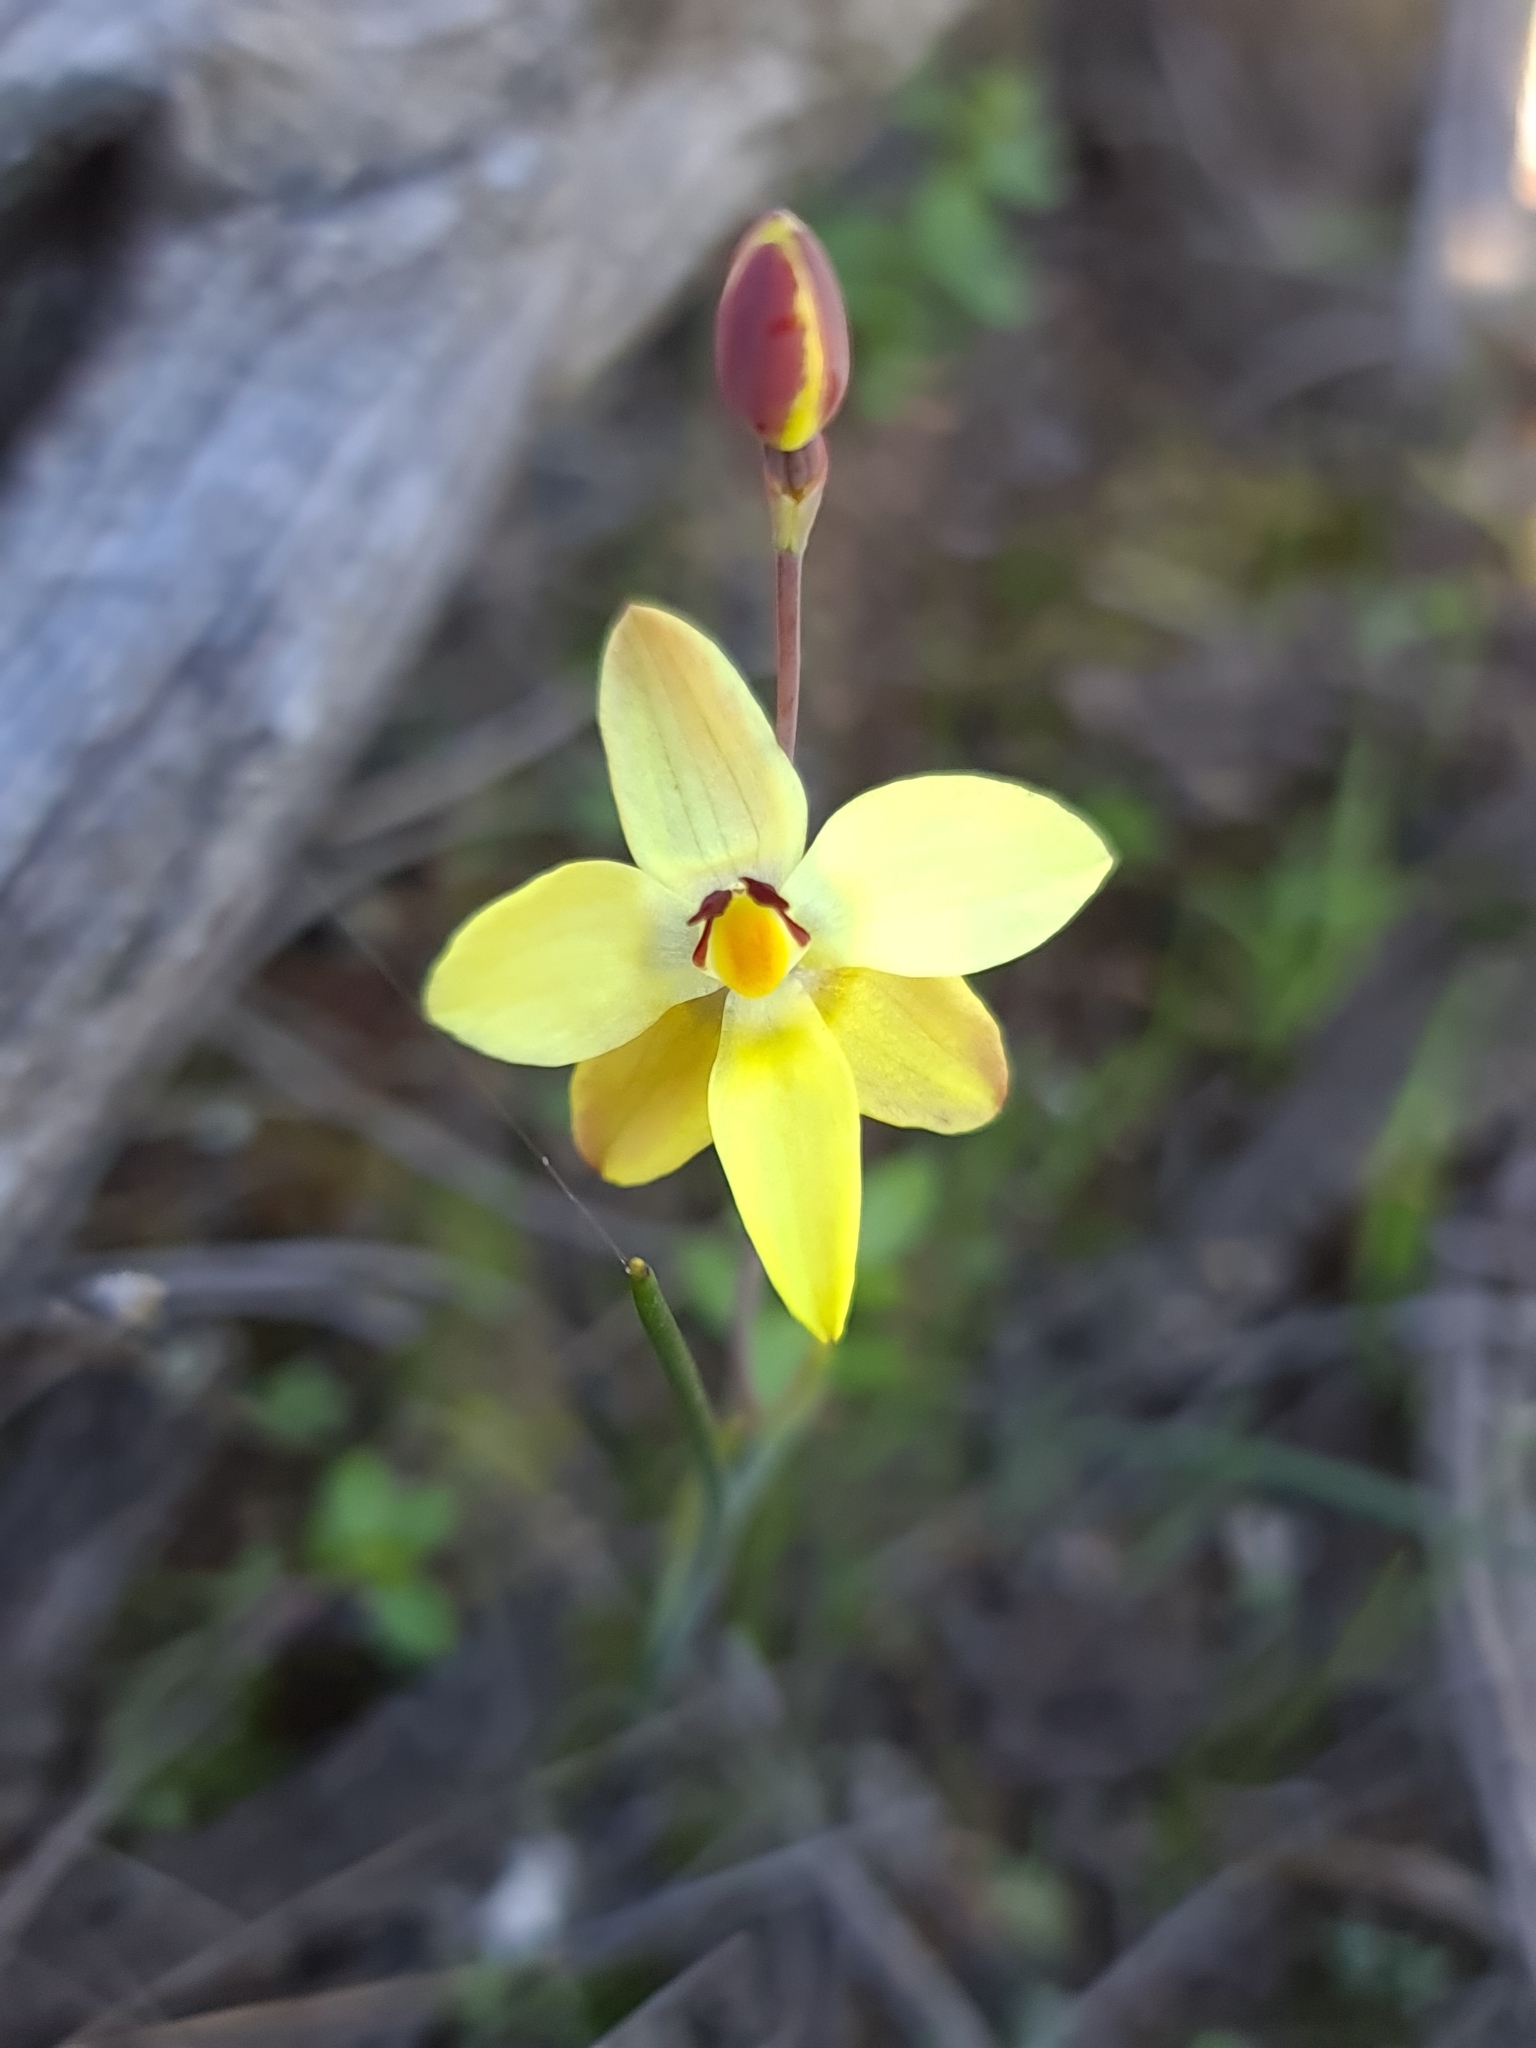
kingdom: Plantae
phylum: Tracheophyta
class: Liliopsida
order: Asparagales
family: Orchidaceae
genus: Thelymitra
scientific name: Thelymitra antennifera
